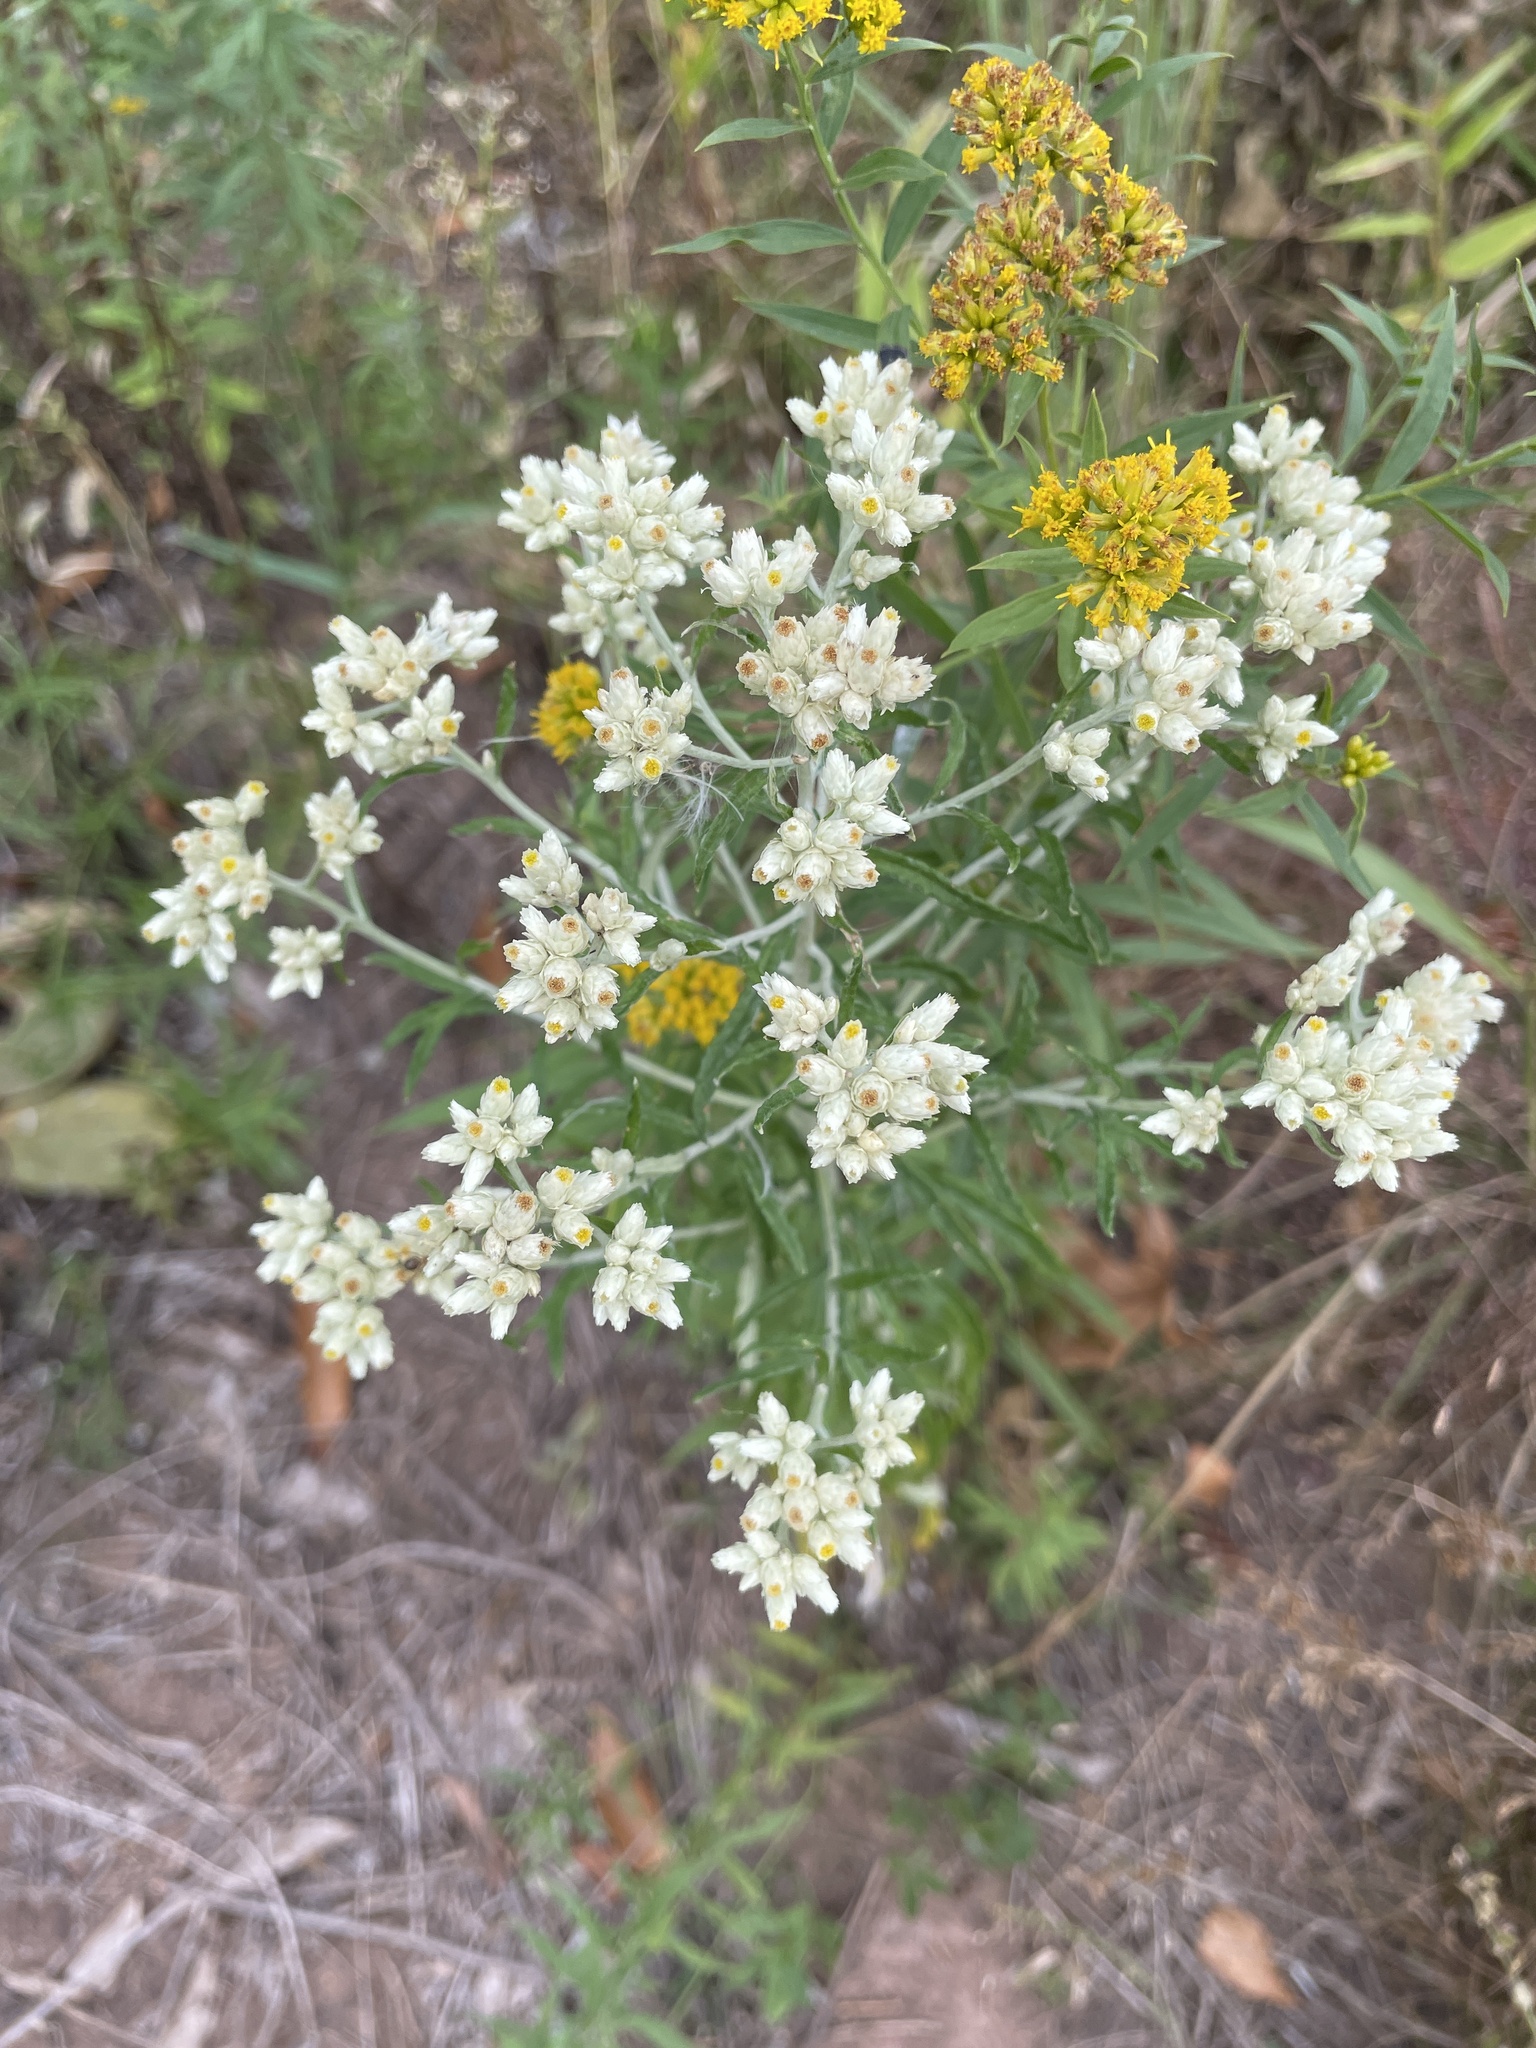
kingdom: Plantae
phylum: Tracheophyta
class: Magnoliopsida
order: Asterales
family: Asteraceae
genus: Pseudognaphalium
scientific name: Pseudognaphalium obtusifolium
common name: Eastern rabbit-tobacco
